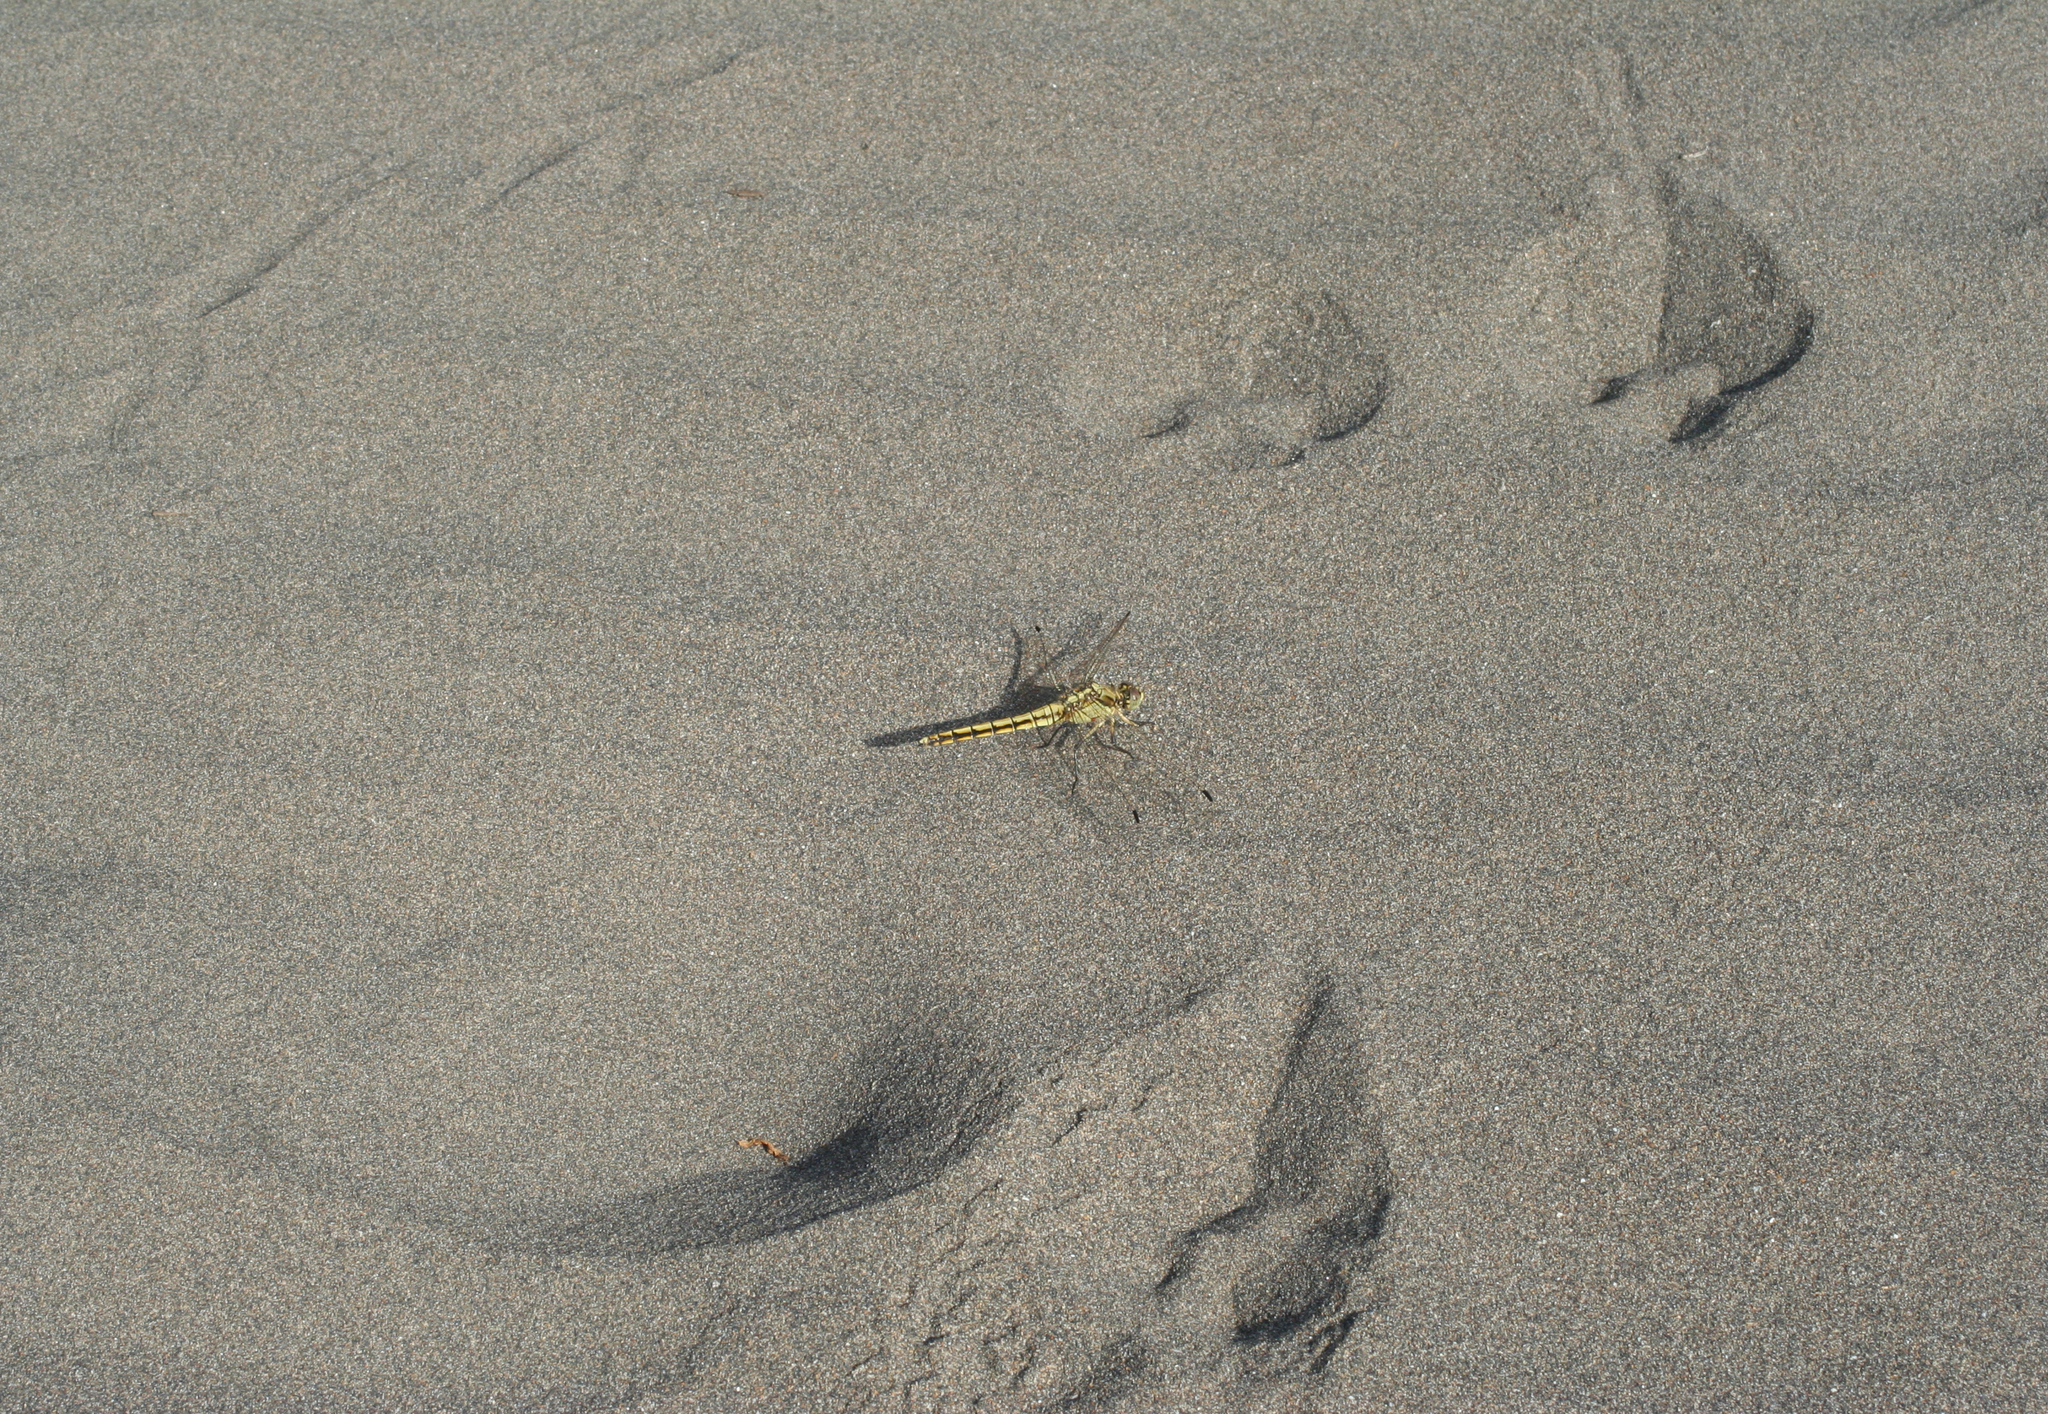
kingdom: Animalia
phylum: Arthropoda
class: Insecta
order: Odonata
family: Libellulidae
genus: Orthetrum
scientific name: Orthetrum cancellatum
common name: Black-tailed skimmer
